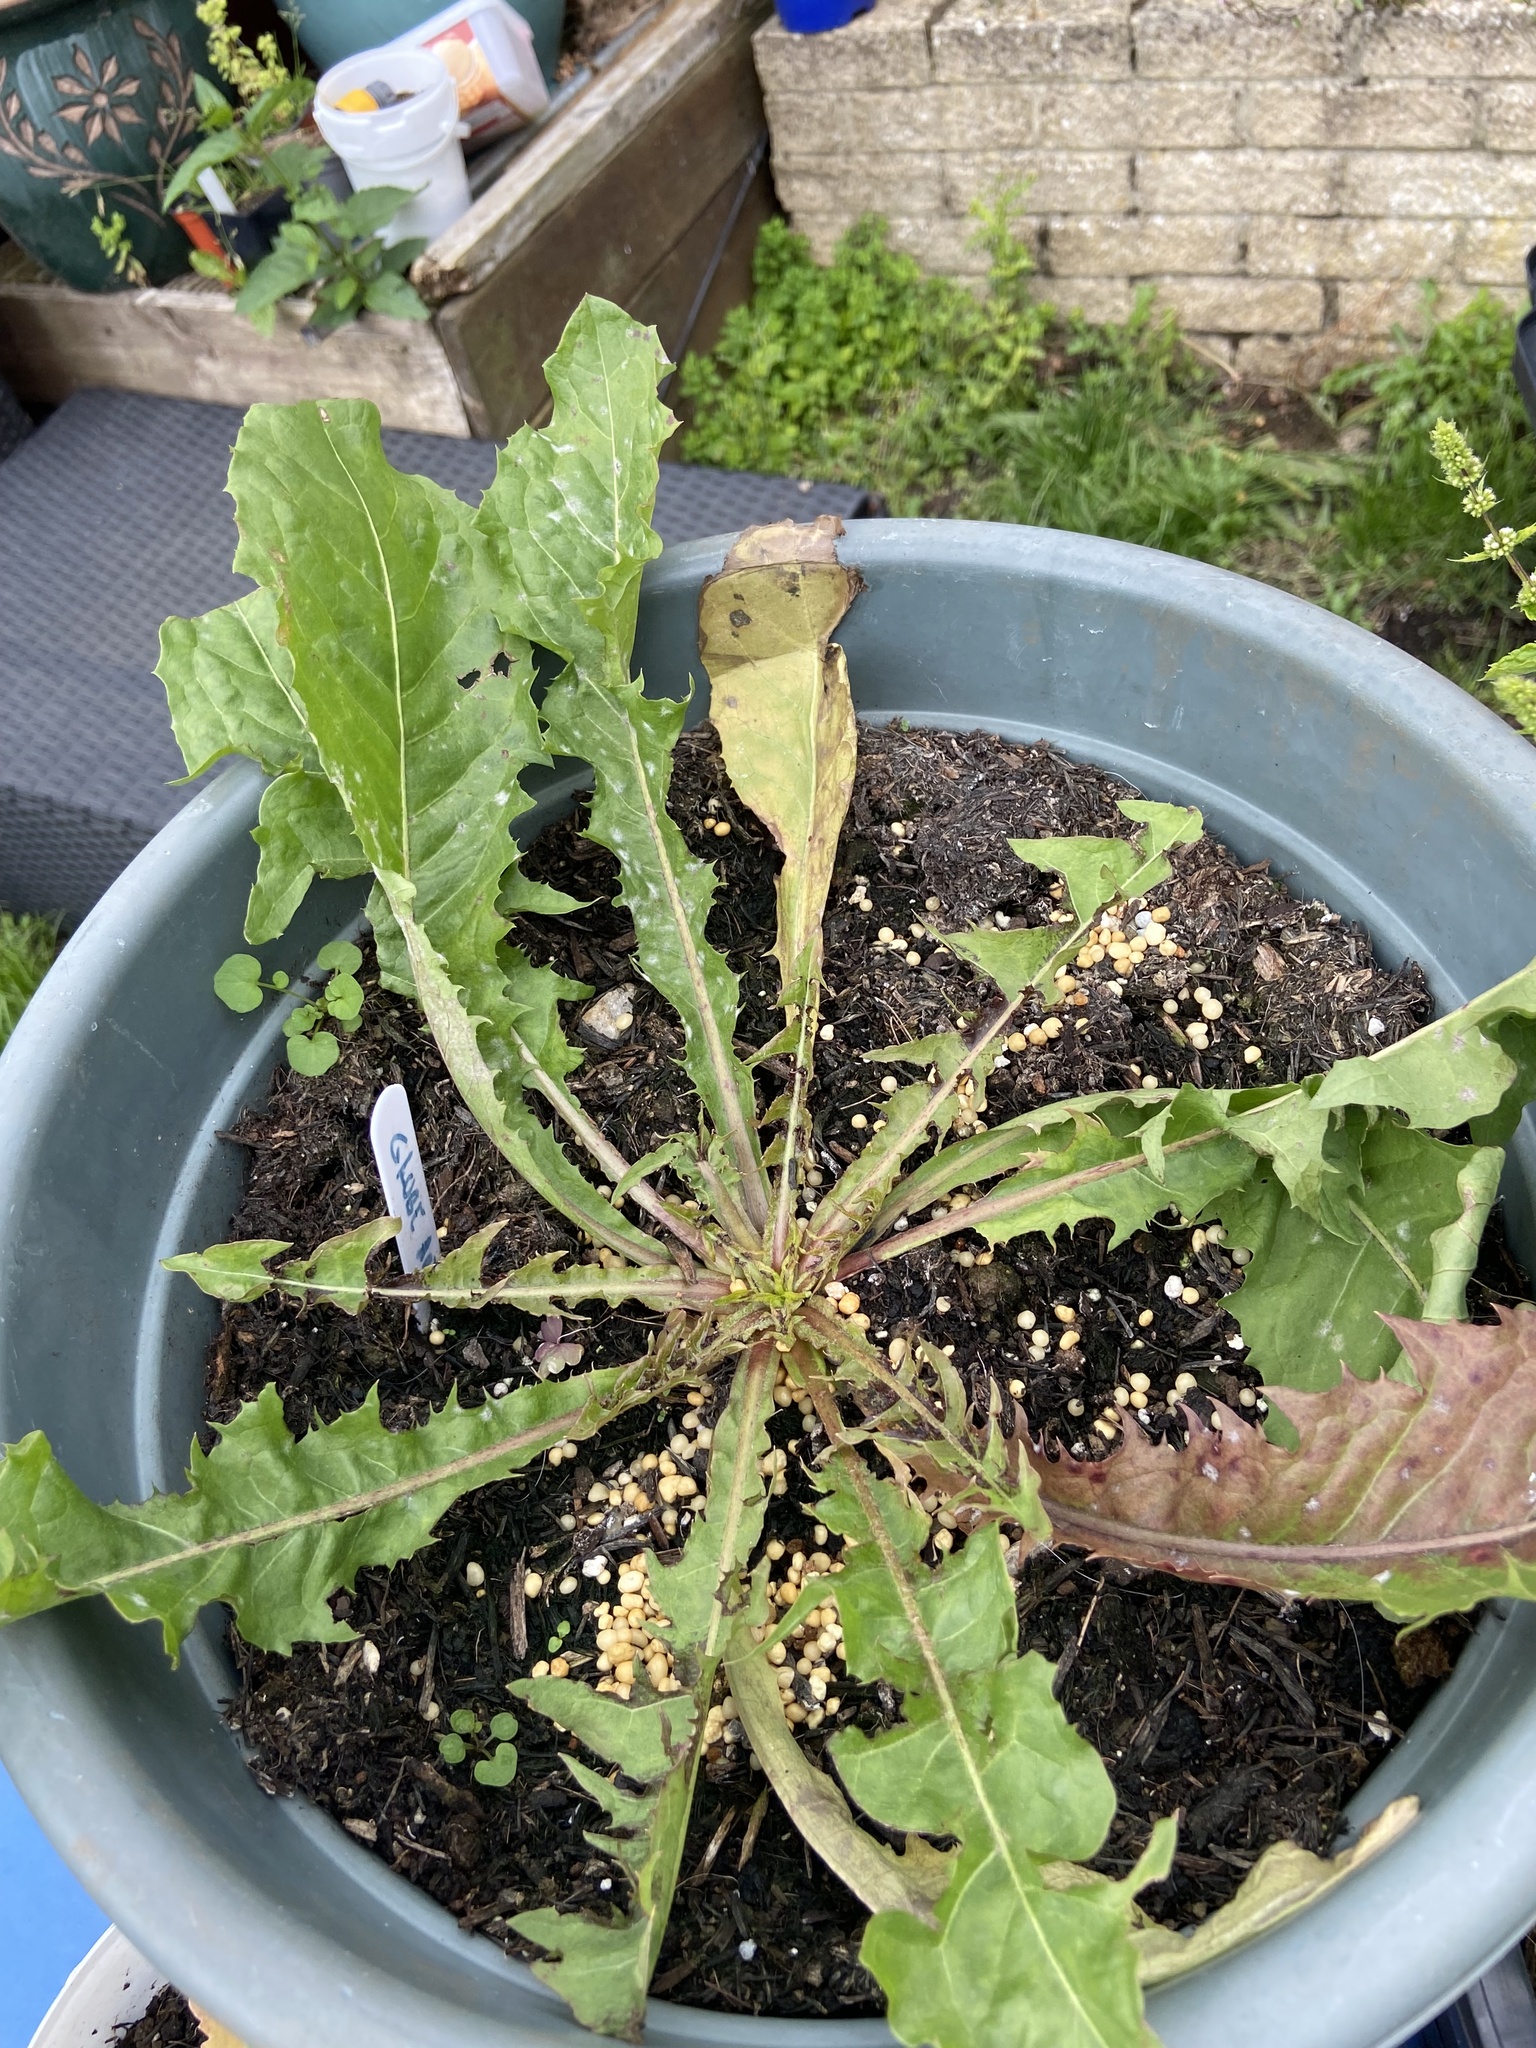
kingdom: Plantae
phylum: Tracheophyta
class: Magnoliopsida
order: Asterales
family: Asteraceae
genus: Taraxacum
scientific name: Taraxacum officinale
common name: Common dandelion
